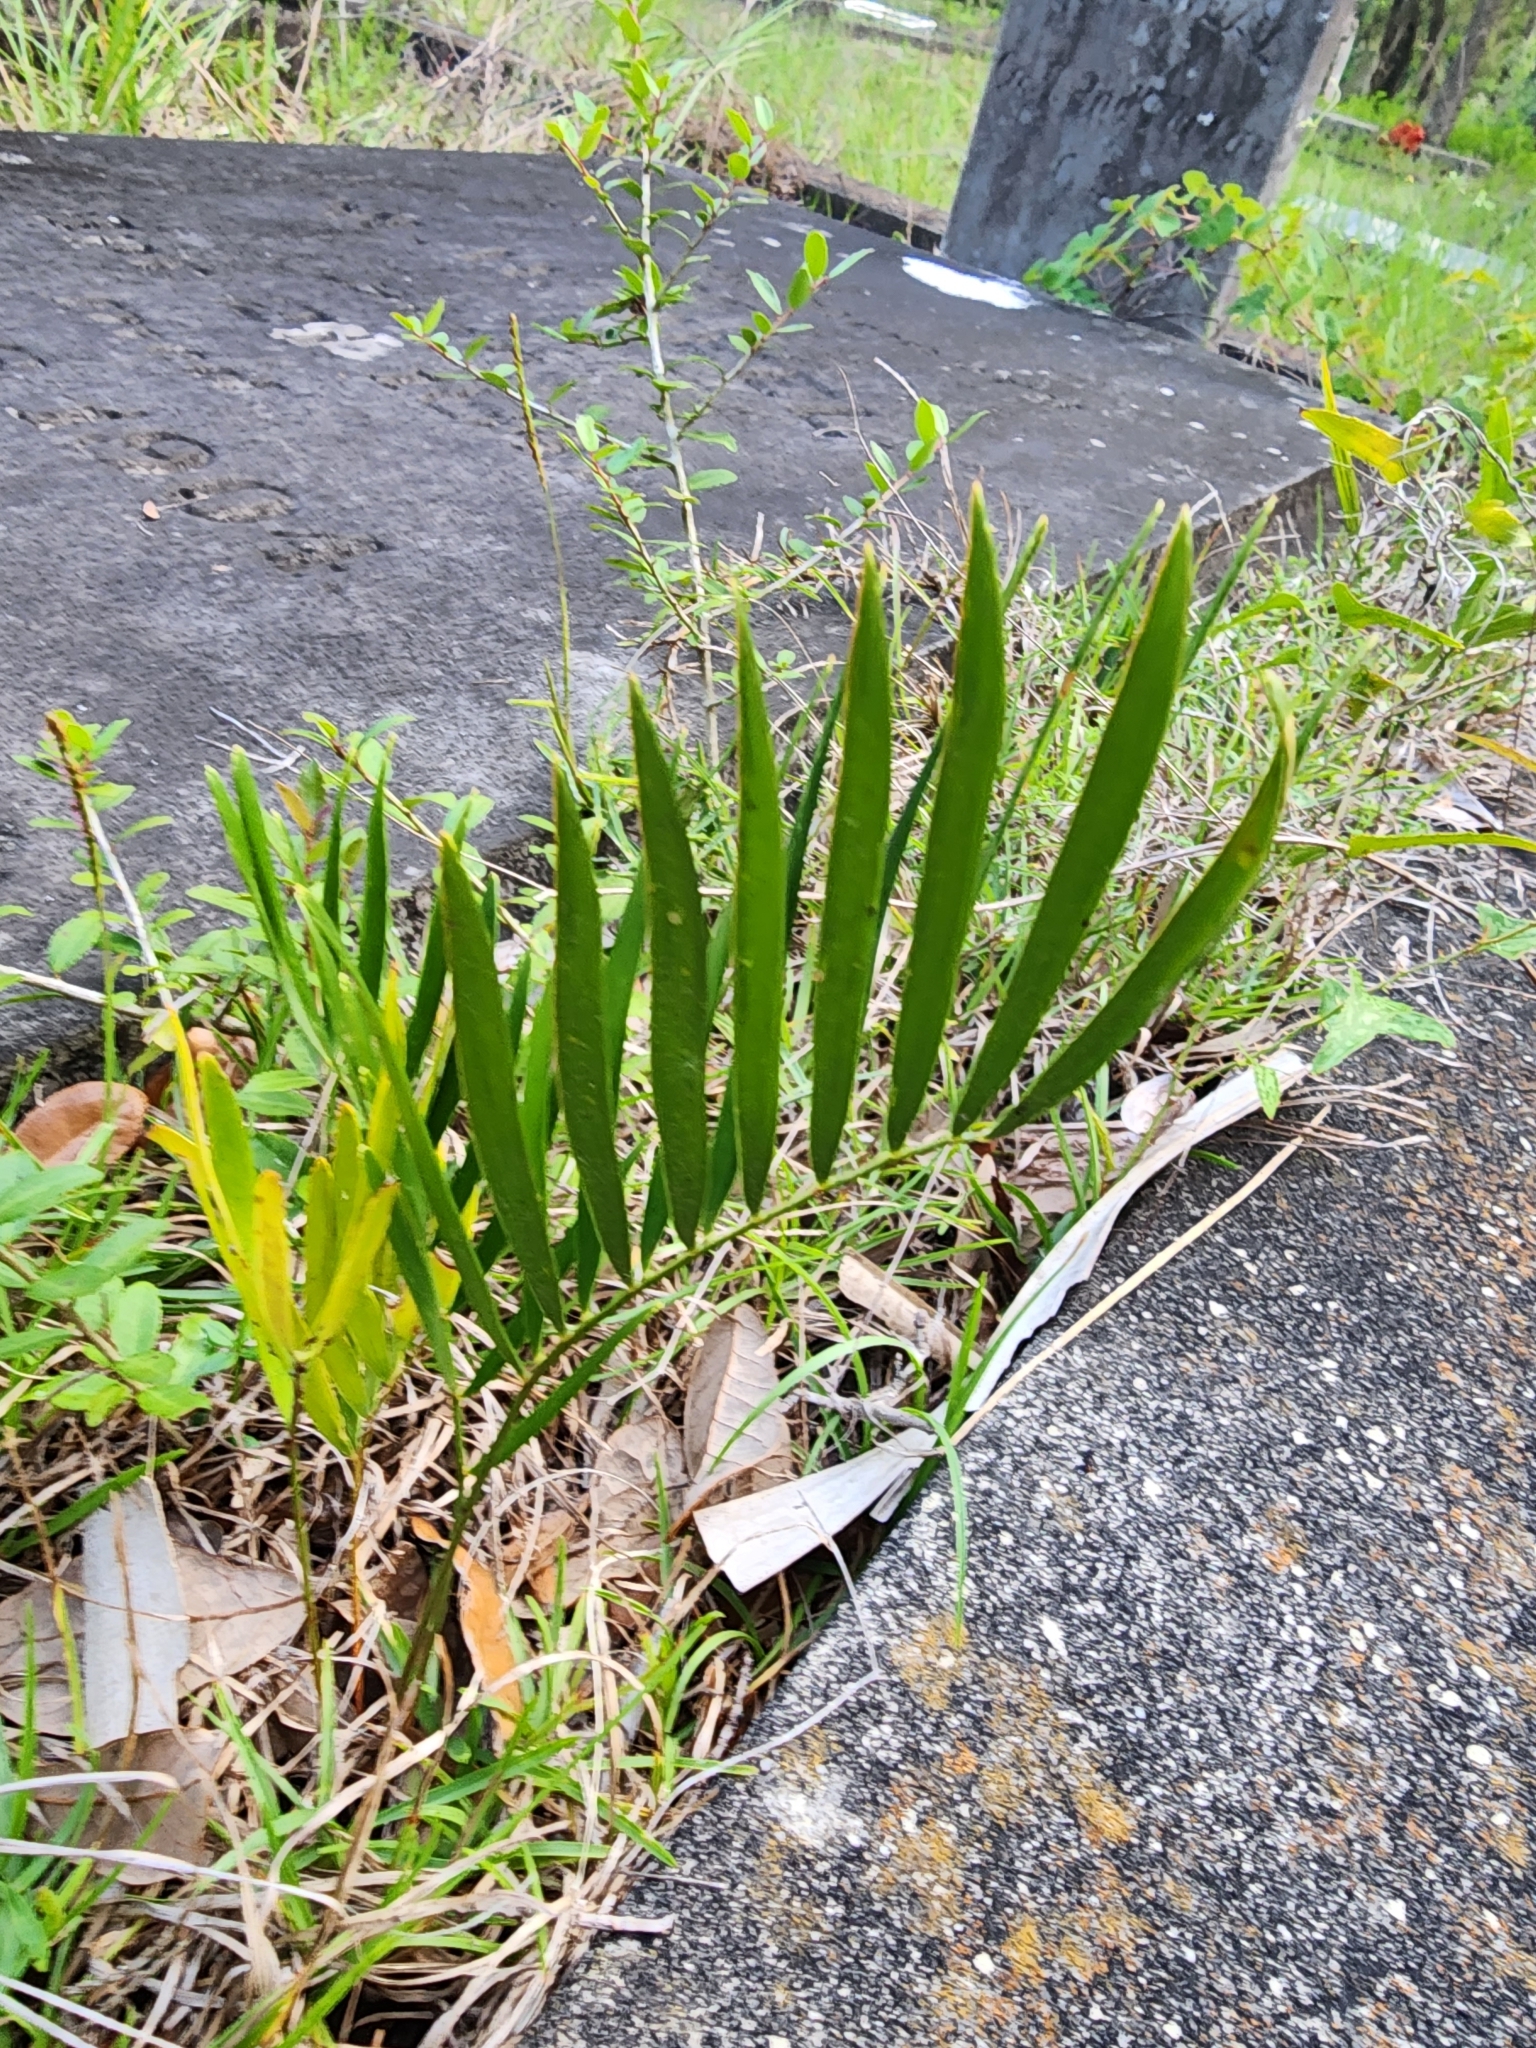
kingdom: Plantae
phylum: Tracheophyta
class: Cycadopsida
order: Cycadales
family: Zamiaceae
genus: Zamia
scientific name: Zamia integrifolia
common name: Florida arrowroot
